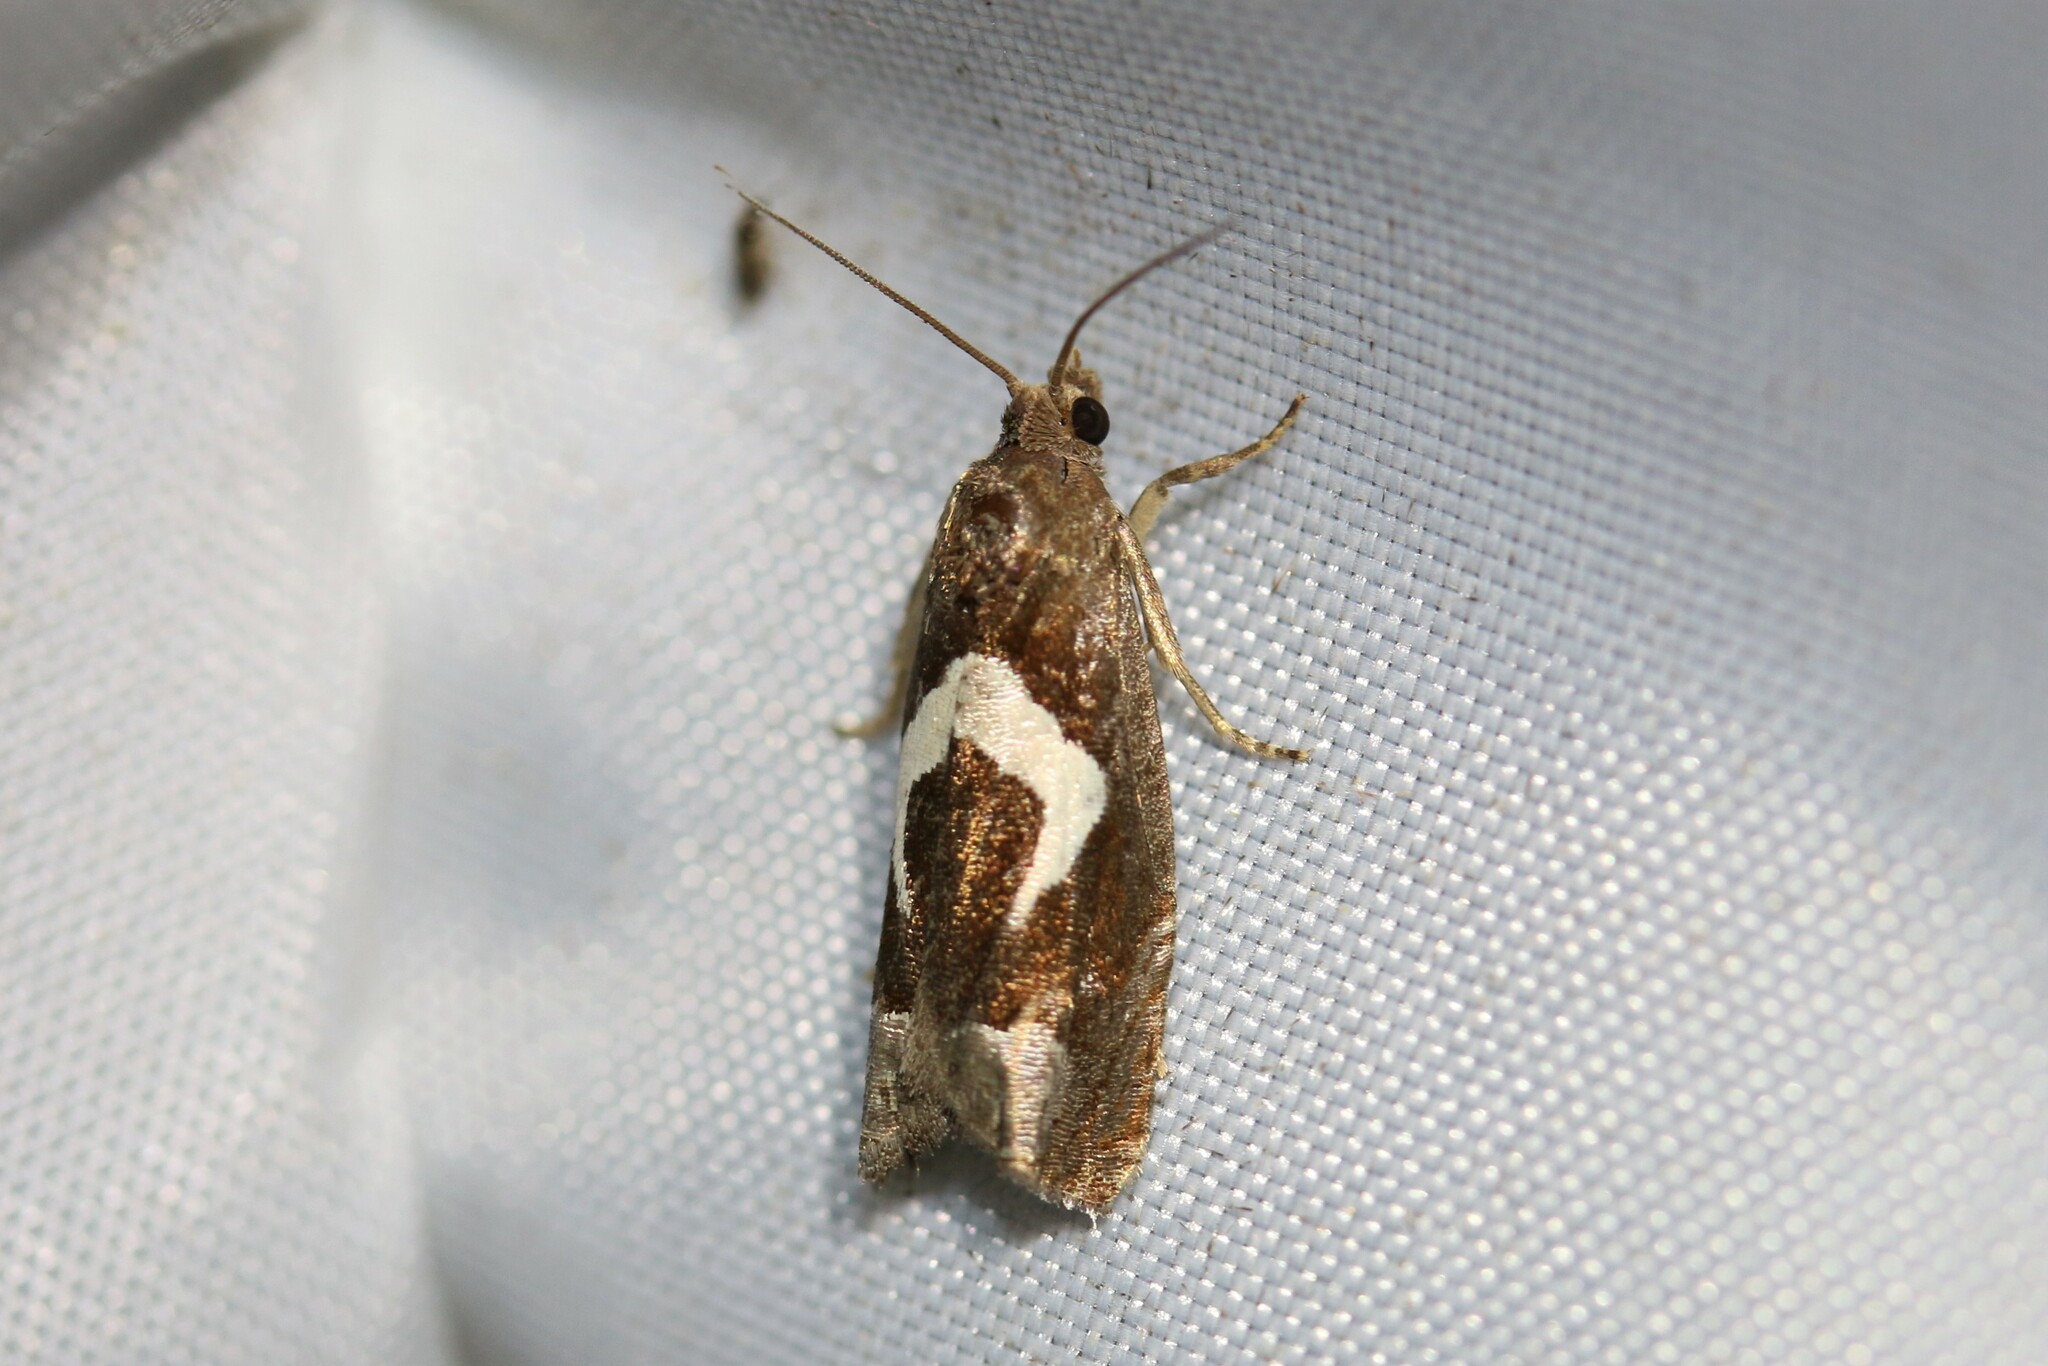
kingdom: Animalia
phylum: Arthropoda
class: Insecta
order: Lepidoptera
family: Tortricidae
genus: Epiblema
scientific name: Epiblema foenella
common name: White-foot bell
